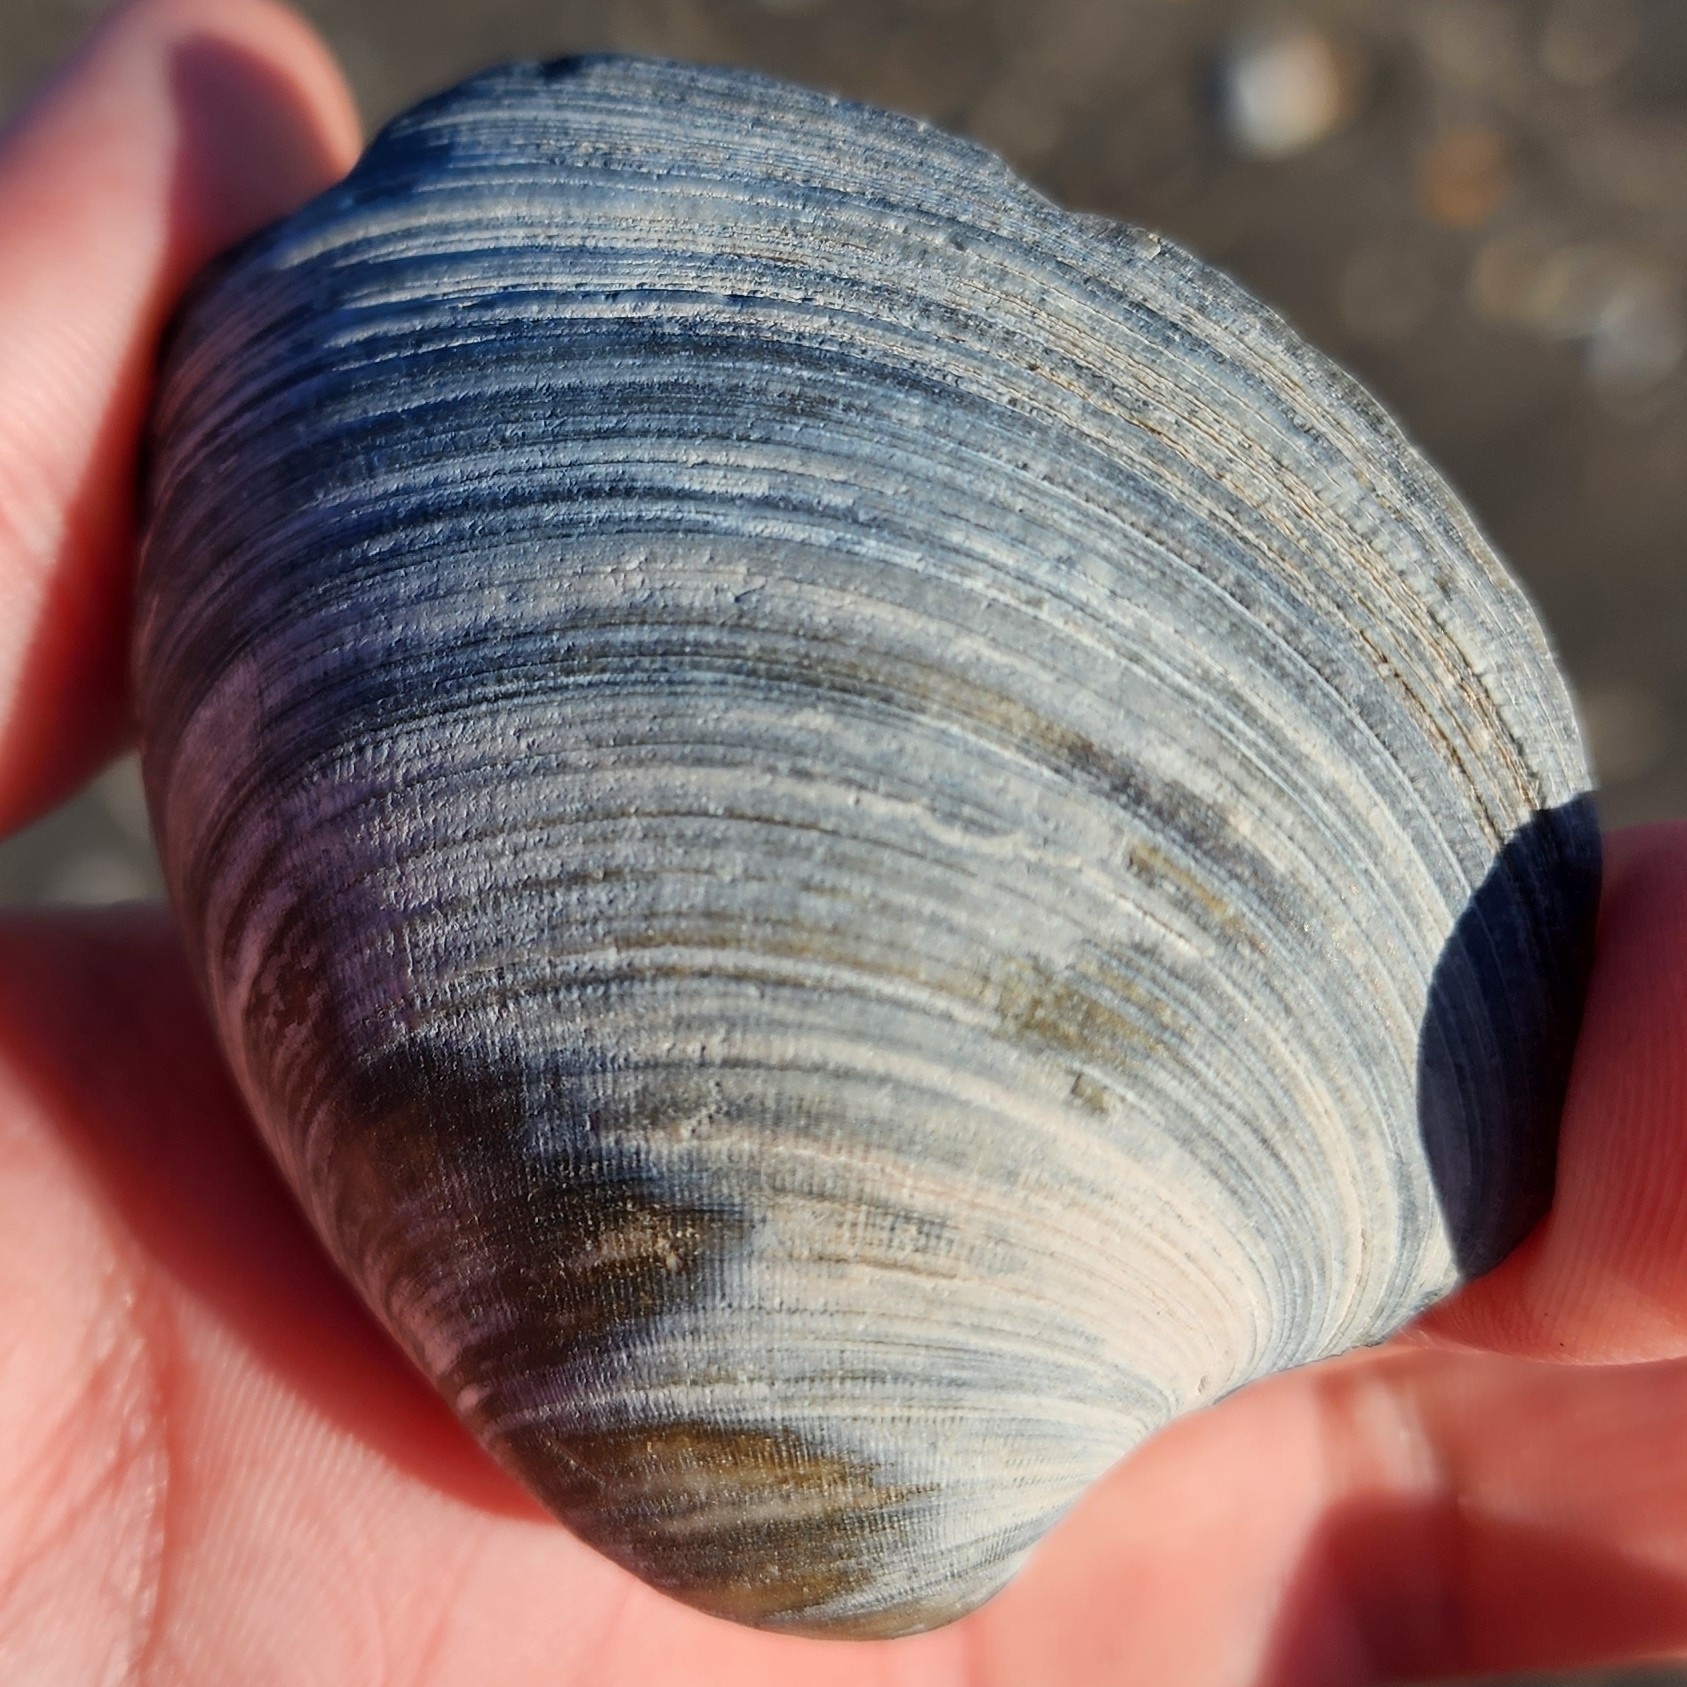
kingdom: Animalia
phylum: Mollusca
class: Bivalvia
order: Venerida
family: Veneridae
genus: Mercenaria
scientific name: Mercenaria mercenaria
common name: American hard-shelled clam
